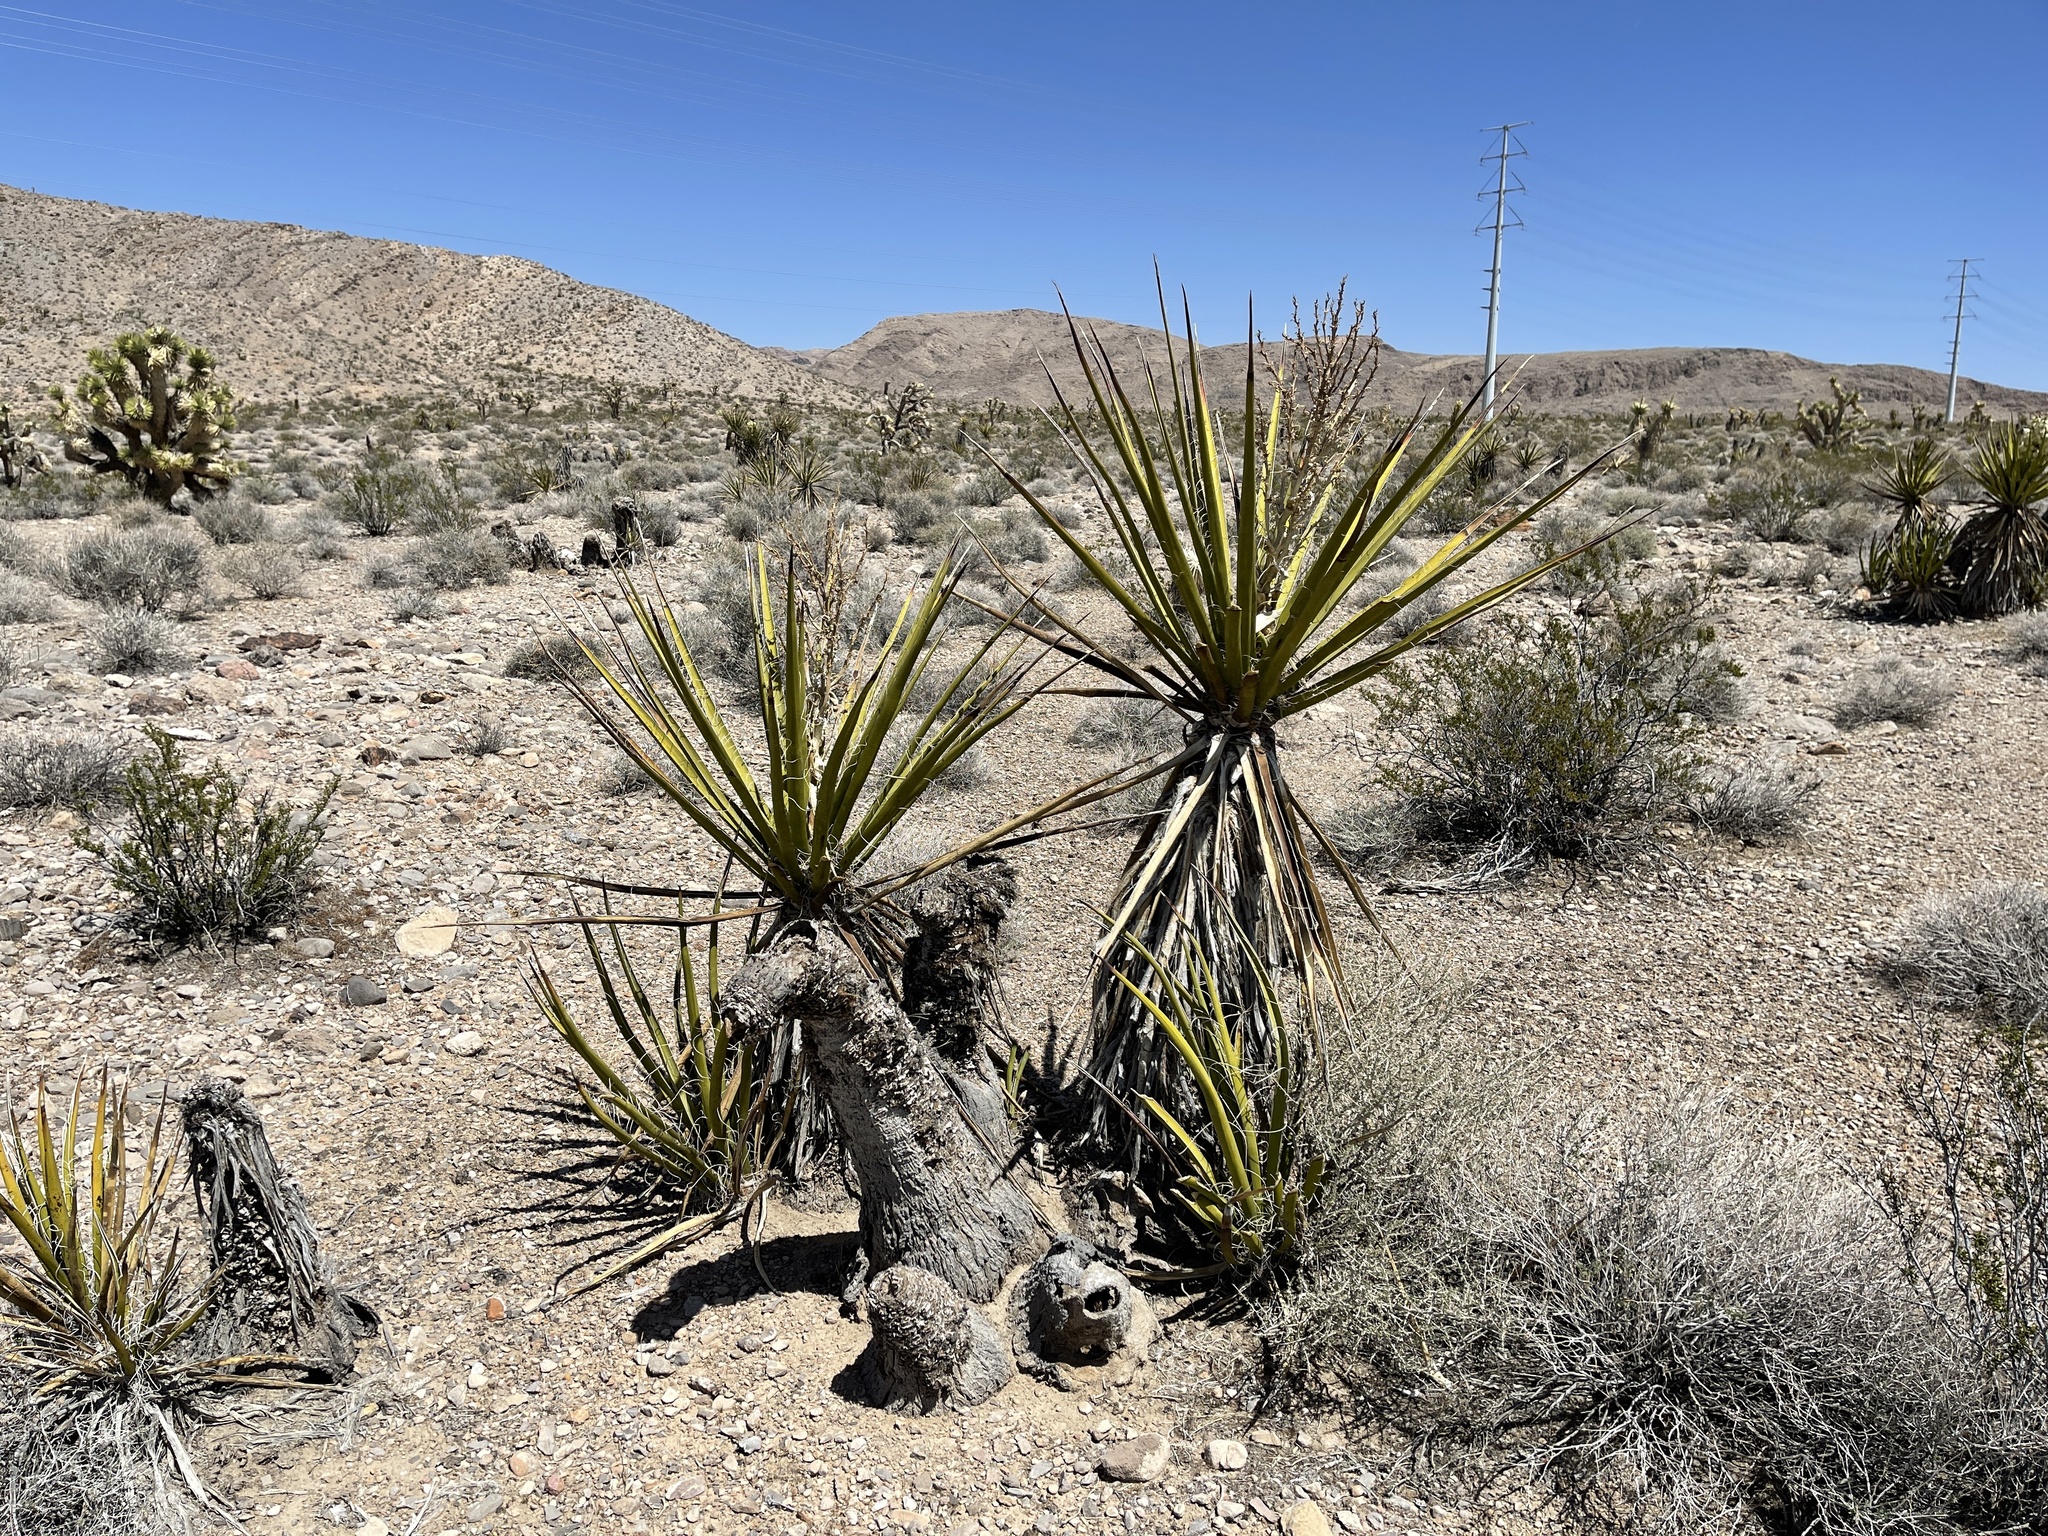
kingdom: Plantae
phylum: Tracheophyta
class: Liliopsida
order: Asparagales
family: Asparagaceae
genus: Yucca
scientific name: Yucca schidigera
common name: Mojave yucca
